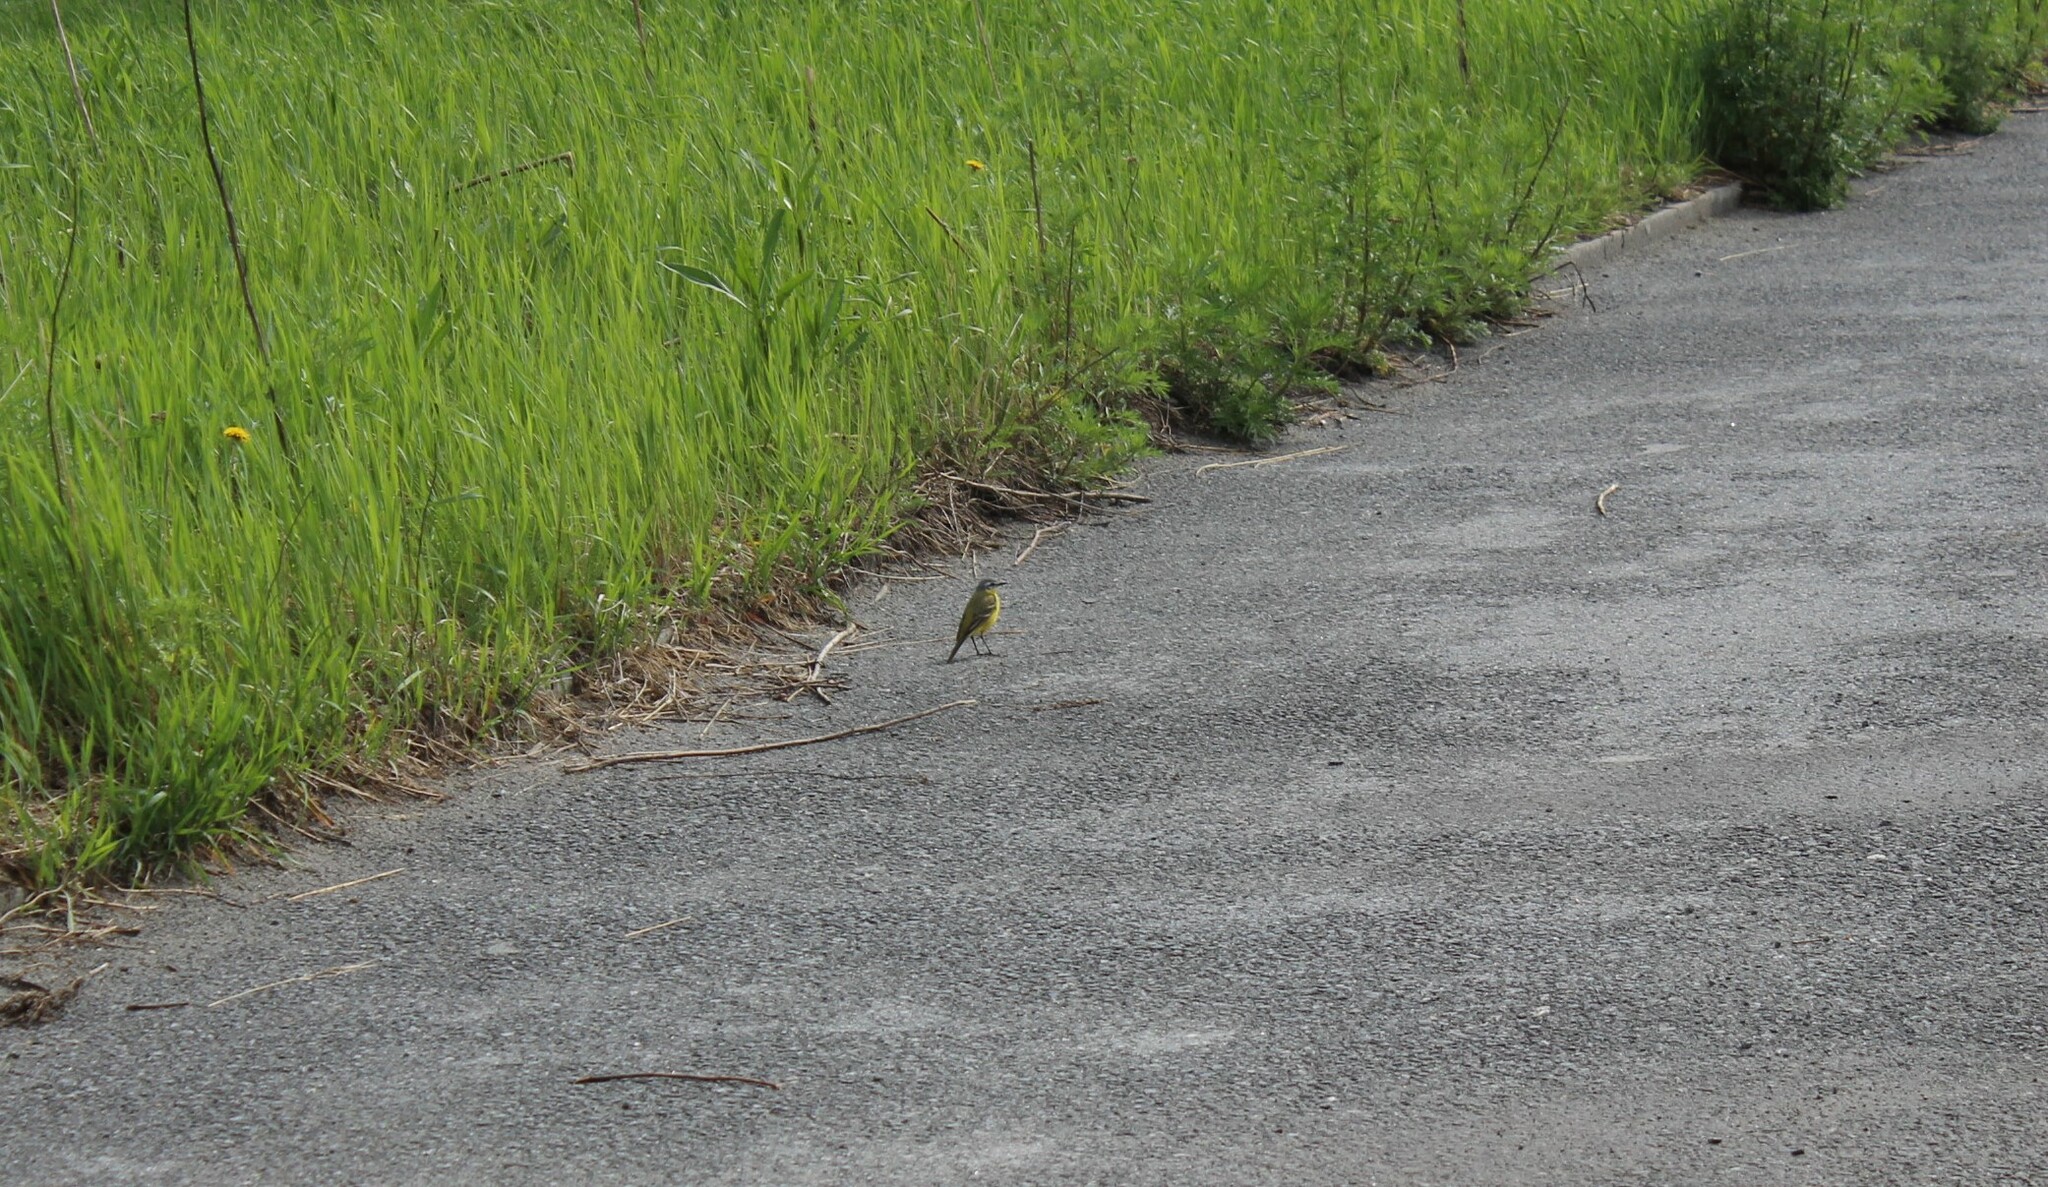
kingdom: Animalia
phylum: Chordata
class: Aves
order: Passeriformes
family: Motacillidae
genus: Motacilla
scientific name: Motacilla flava
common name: Western yellow wagtail
